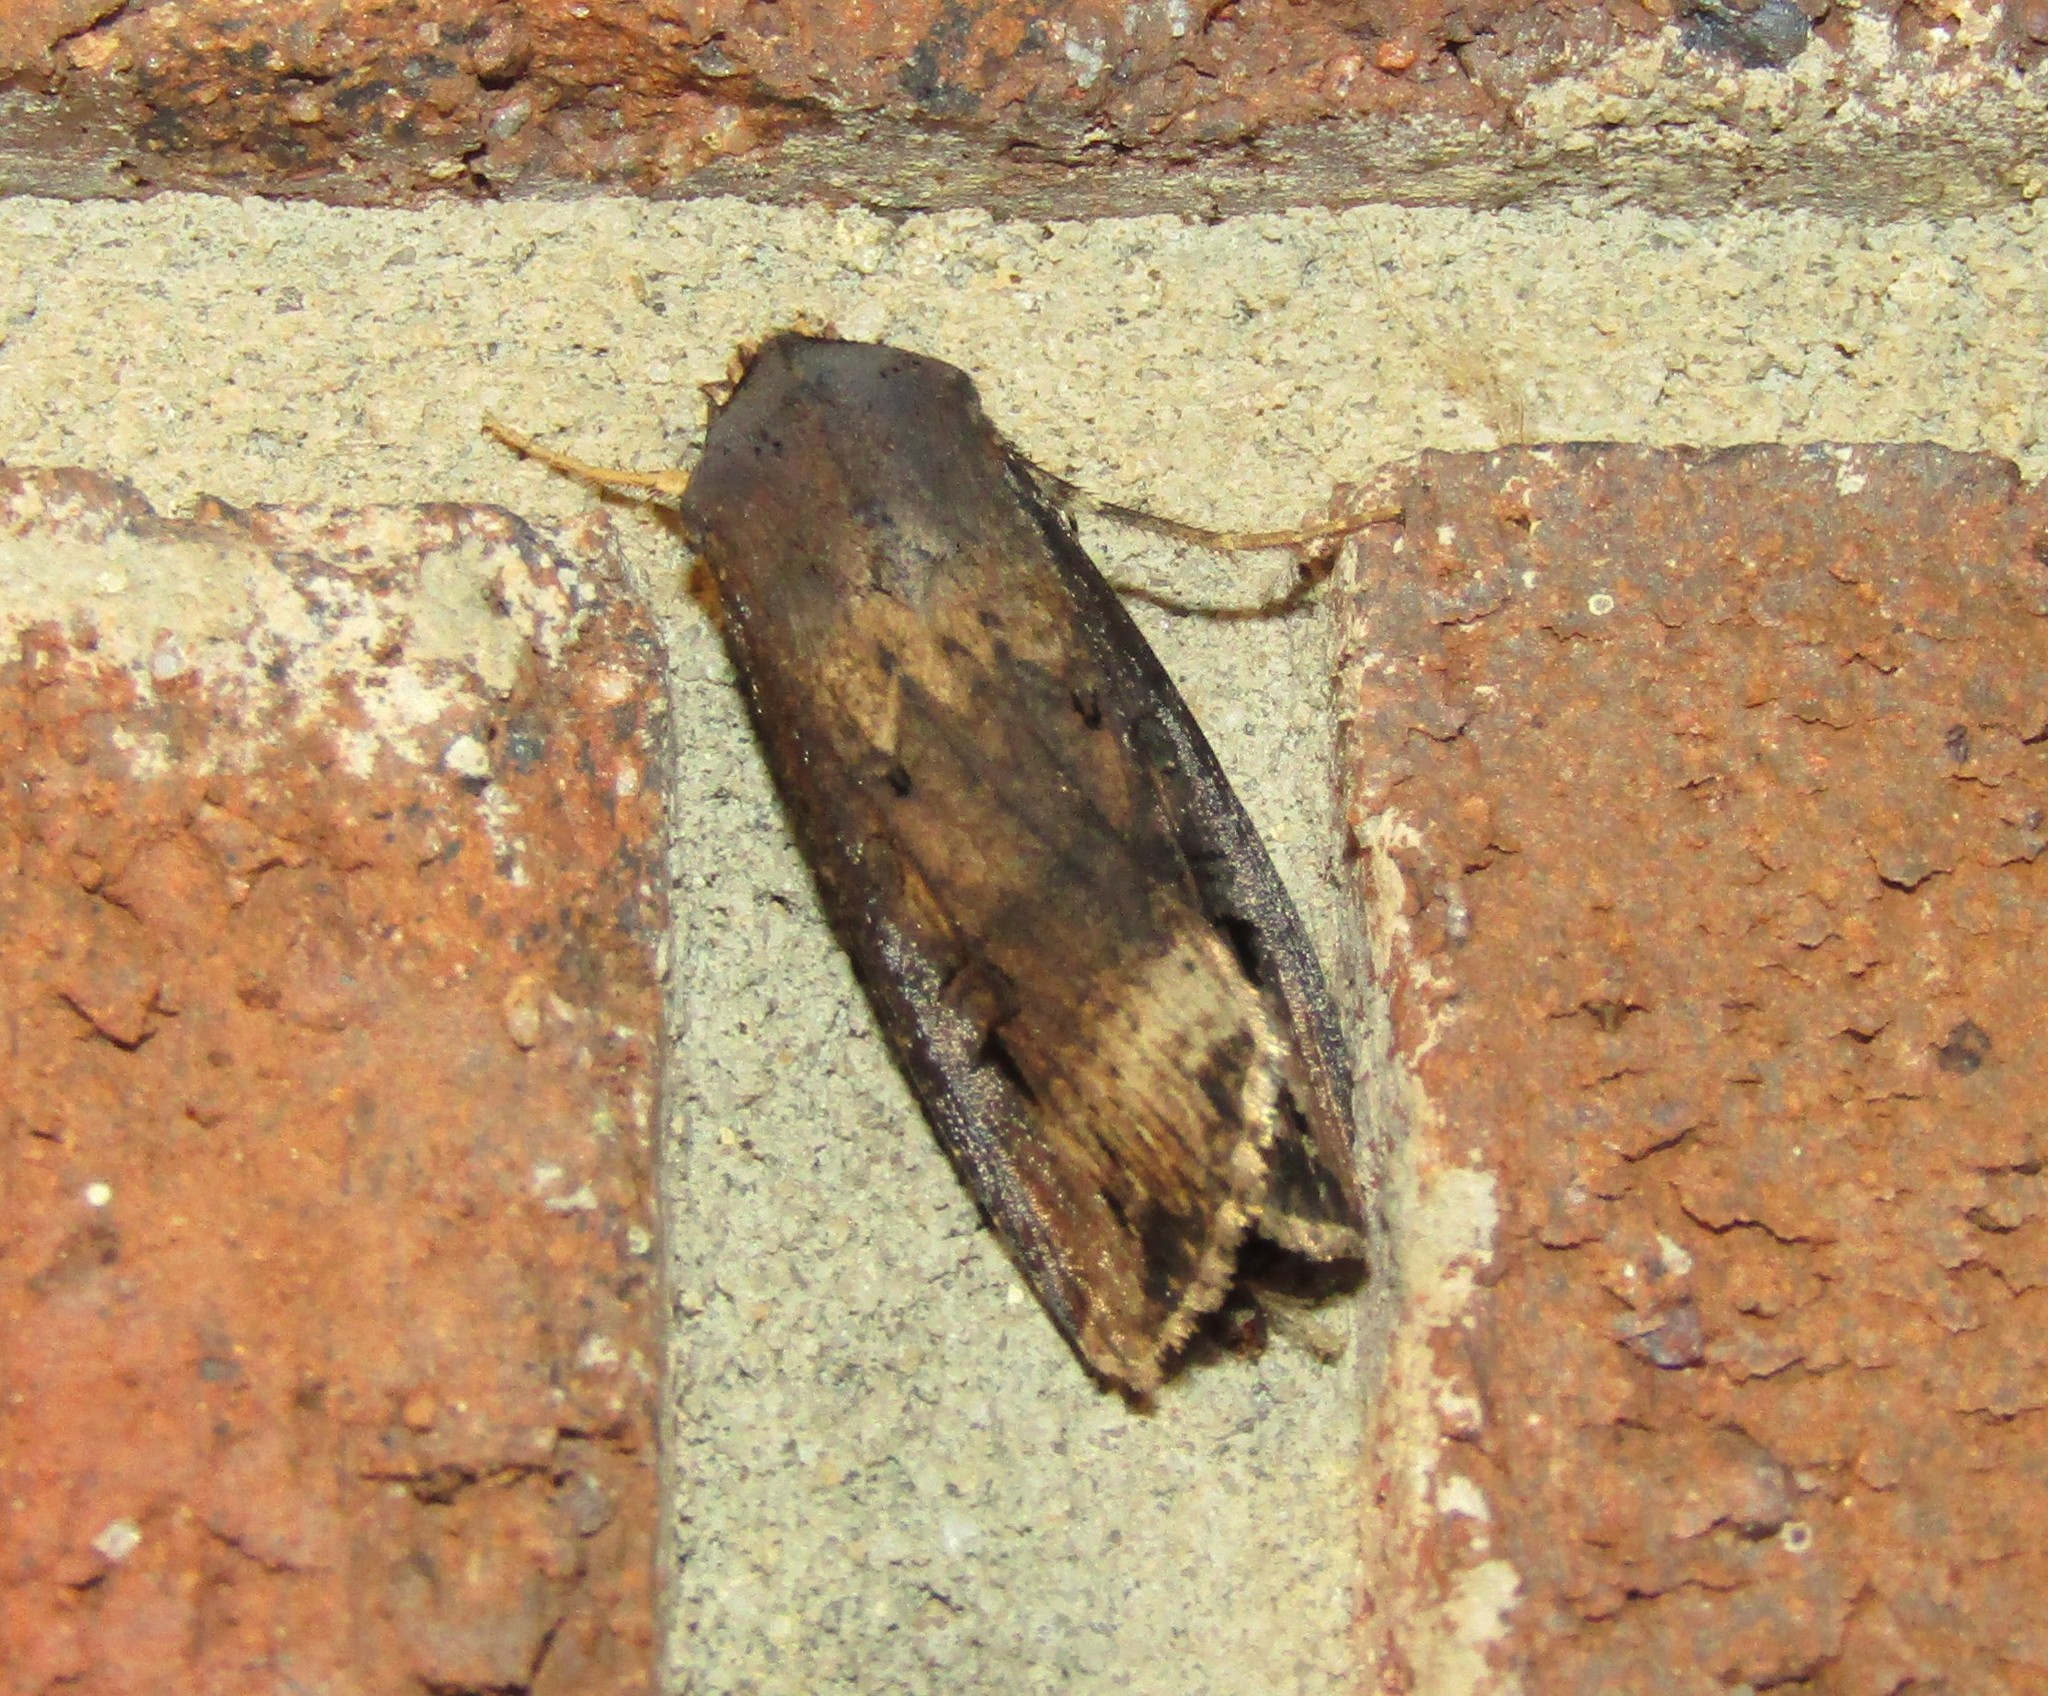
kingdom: Animalia
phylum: Arthropoda
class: Insecta
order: Lepidoptera
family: Noctuidae
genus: Agrotis
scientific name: Agrotis ipsilon
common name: Dark sword-grass
